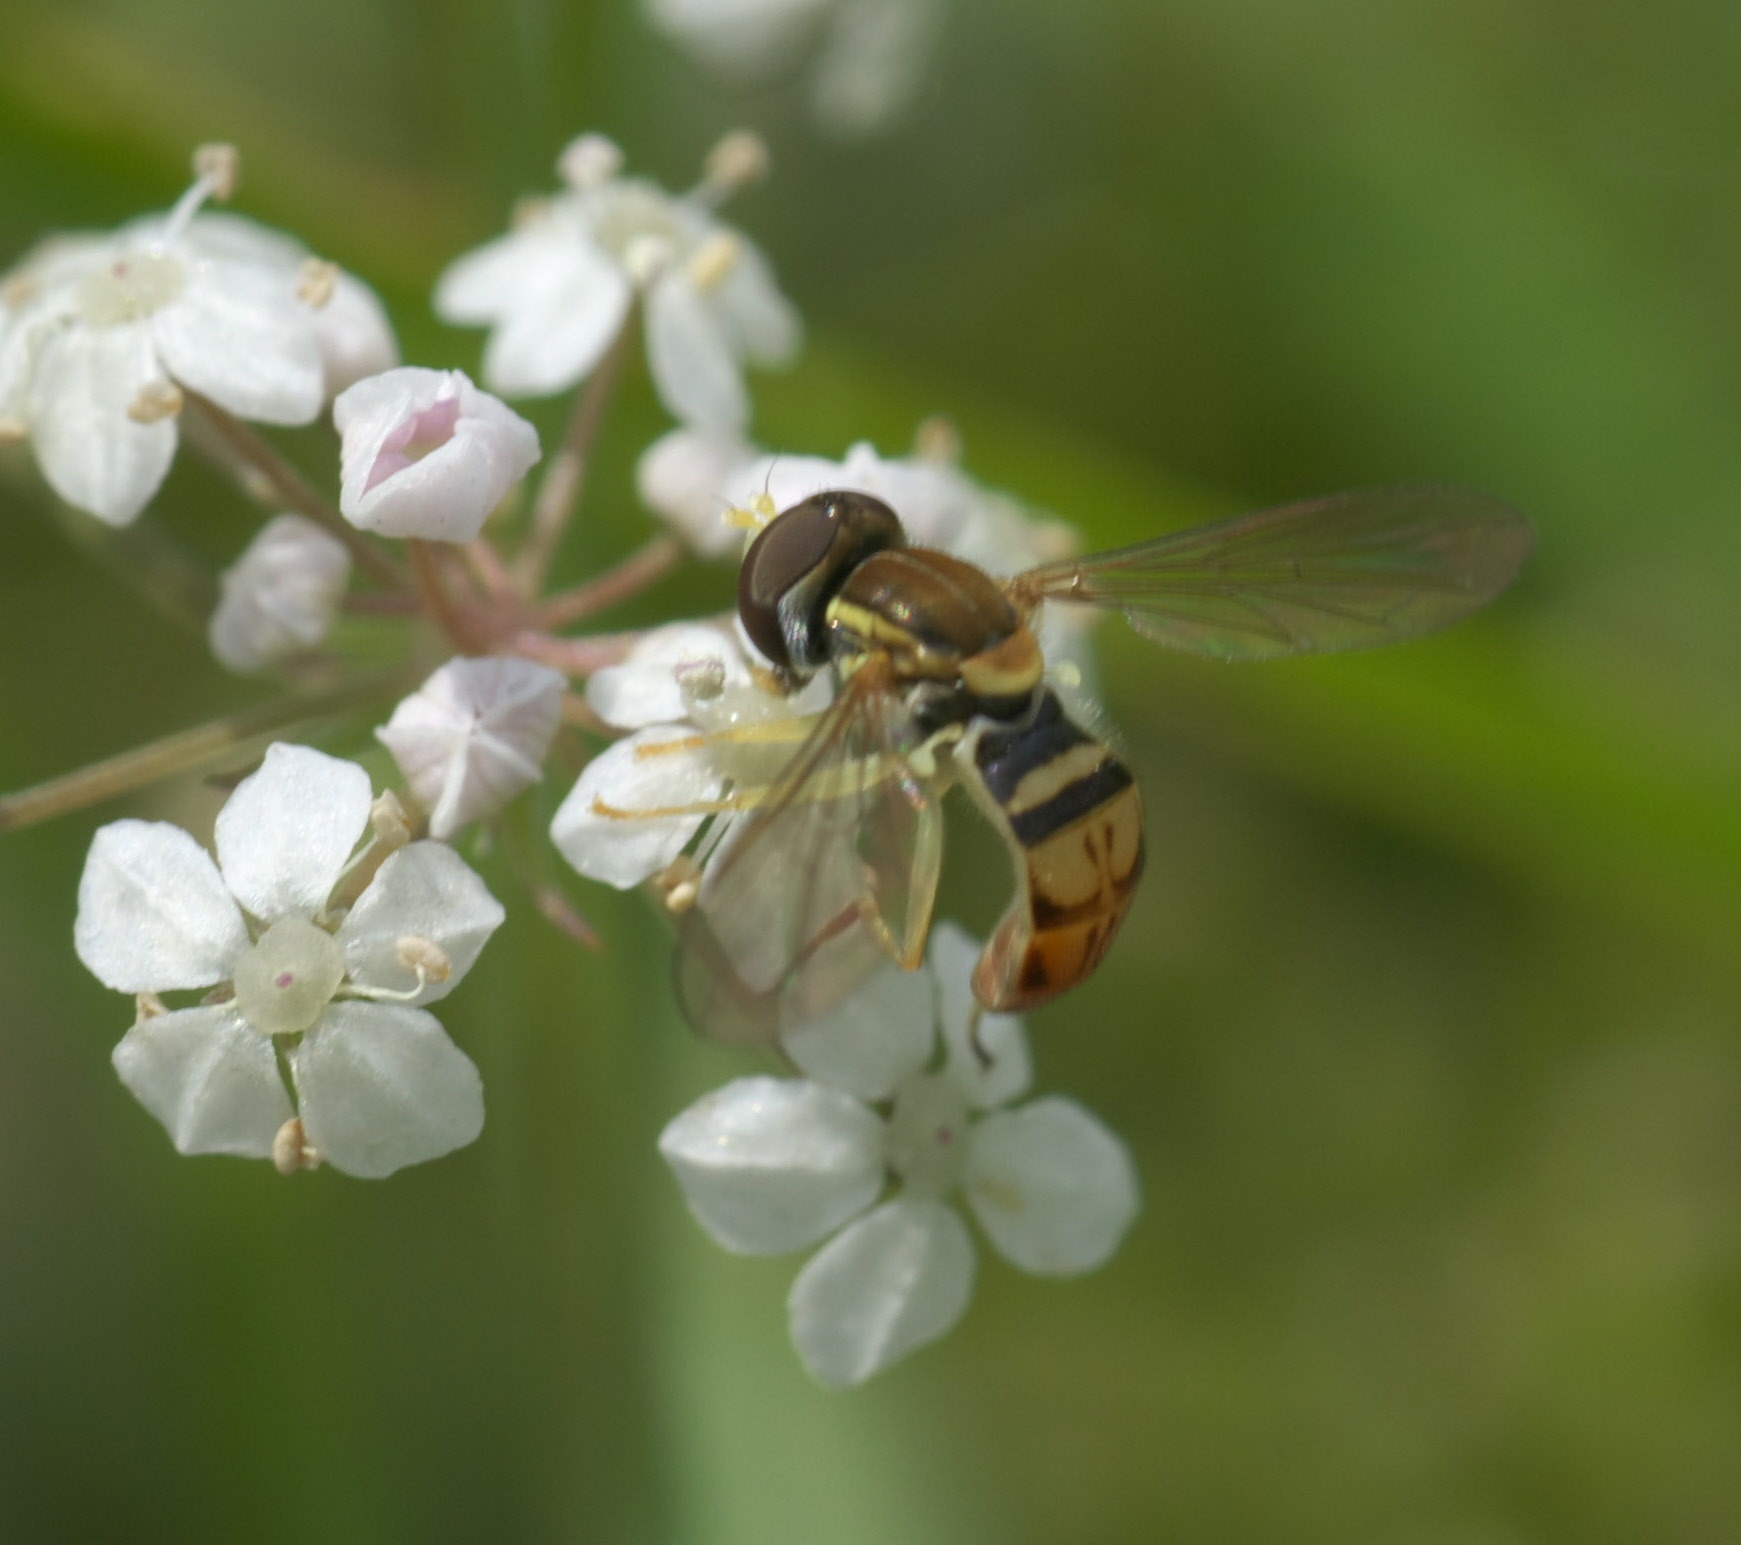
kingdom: Animalia
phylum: Arthropoda
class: Insecta
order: Diptera
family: Syrphidae
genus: Toxomerus
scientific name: Toxomerus marginatus
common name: Syrphid fly
